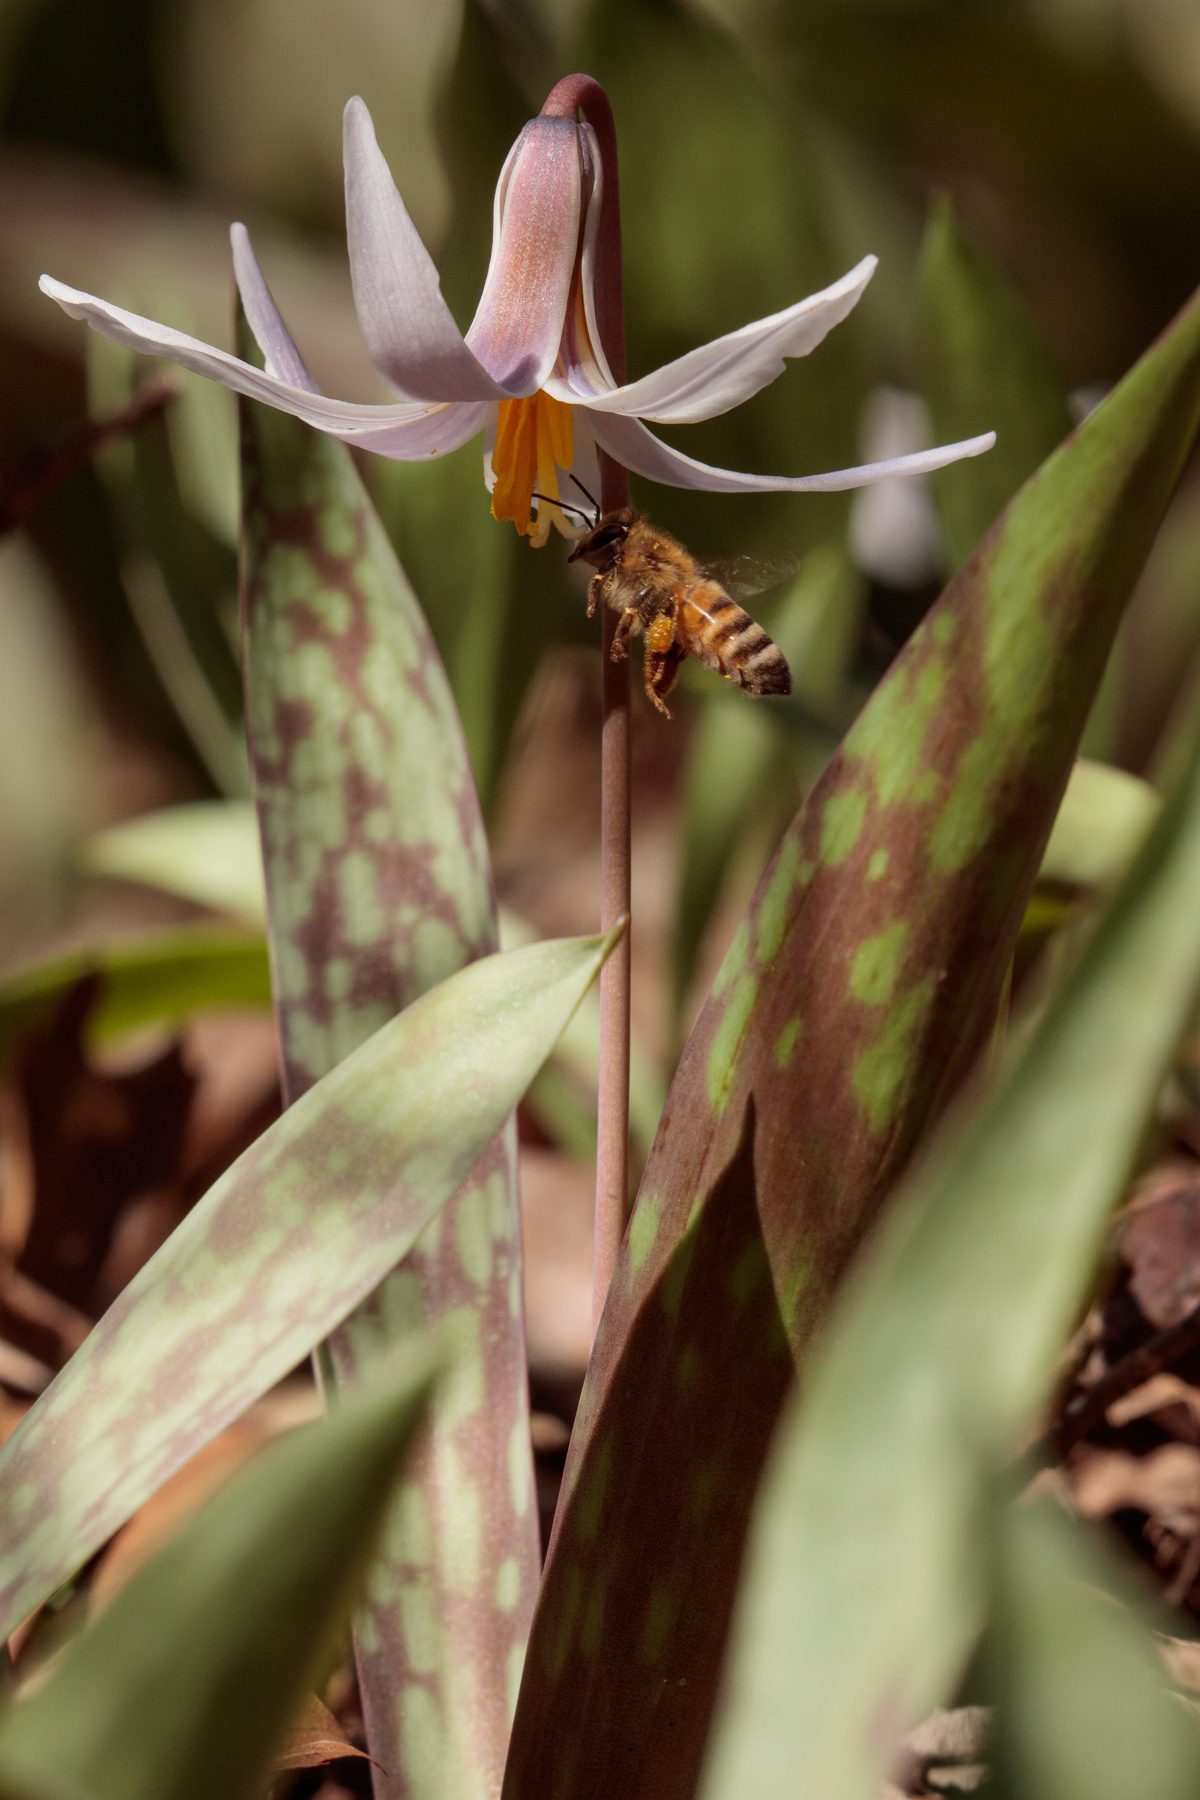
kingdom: Plantae
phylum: Tracheophyta
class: Liliopsida
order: Liliales
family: Liliaceae
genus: Erythronium
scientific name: Erythronium albidum
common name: White trout-lily
